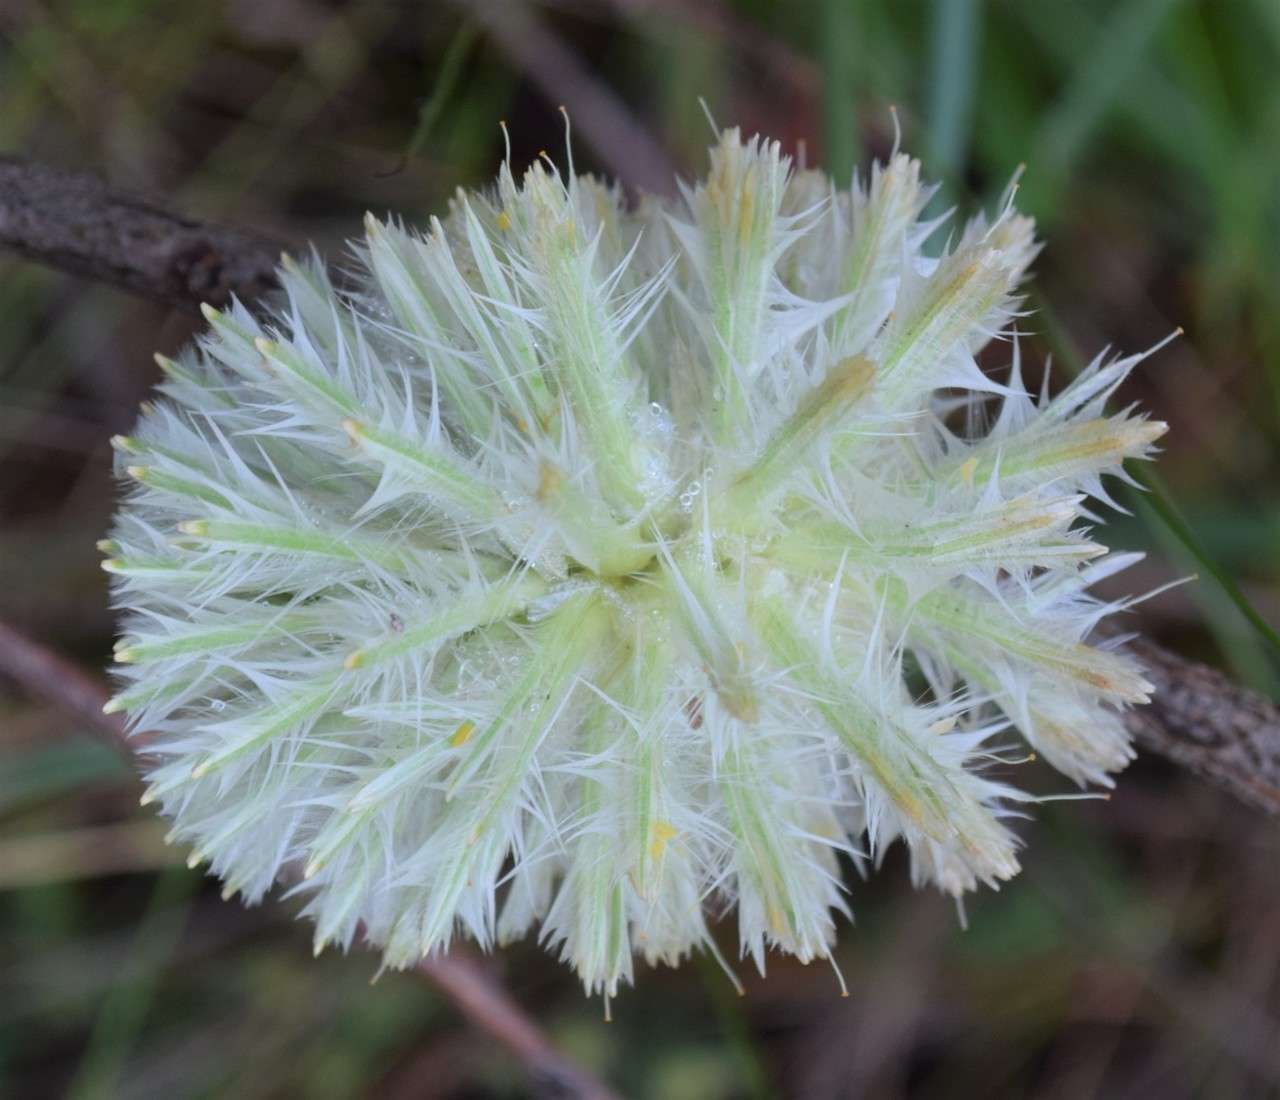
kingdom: Plantae
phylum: Tracheophyta
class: Magnoliopsida
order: Caryophyllales
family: Amaranthaceae
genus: Ptilotus
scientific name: Ptilotus macrocephalus
